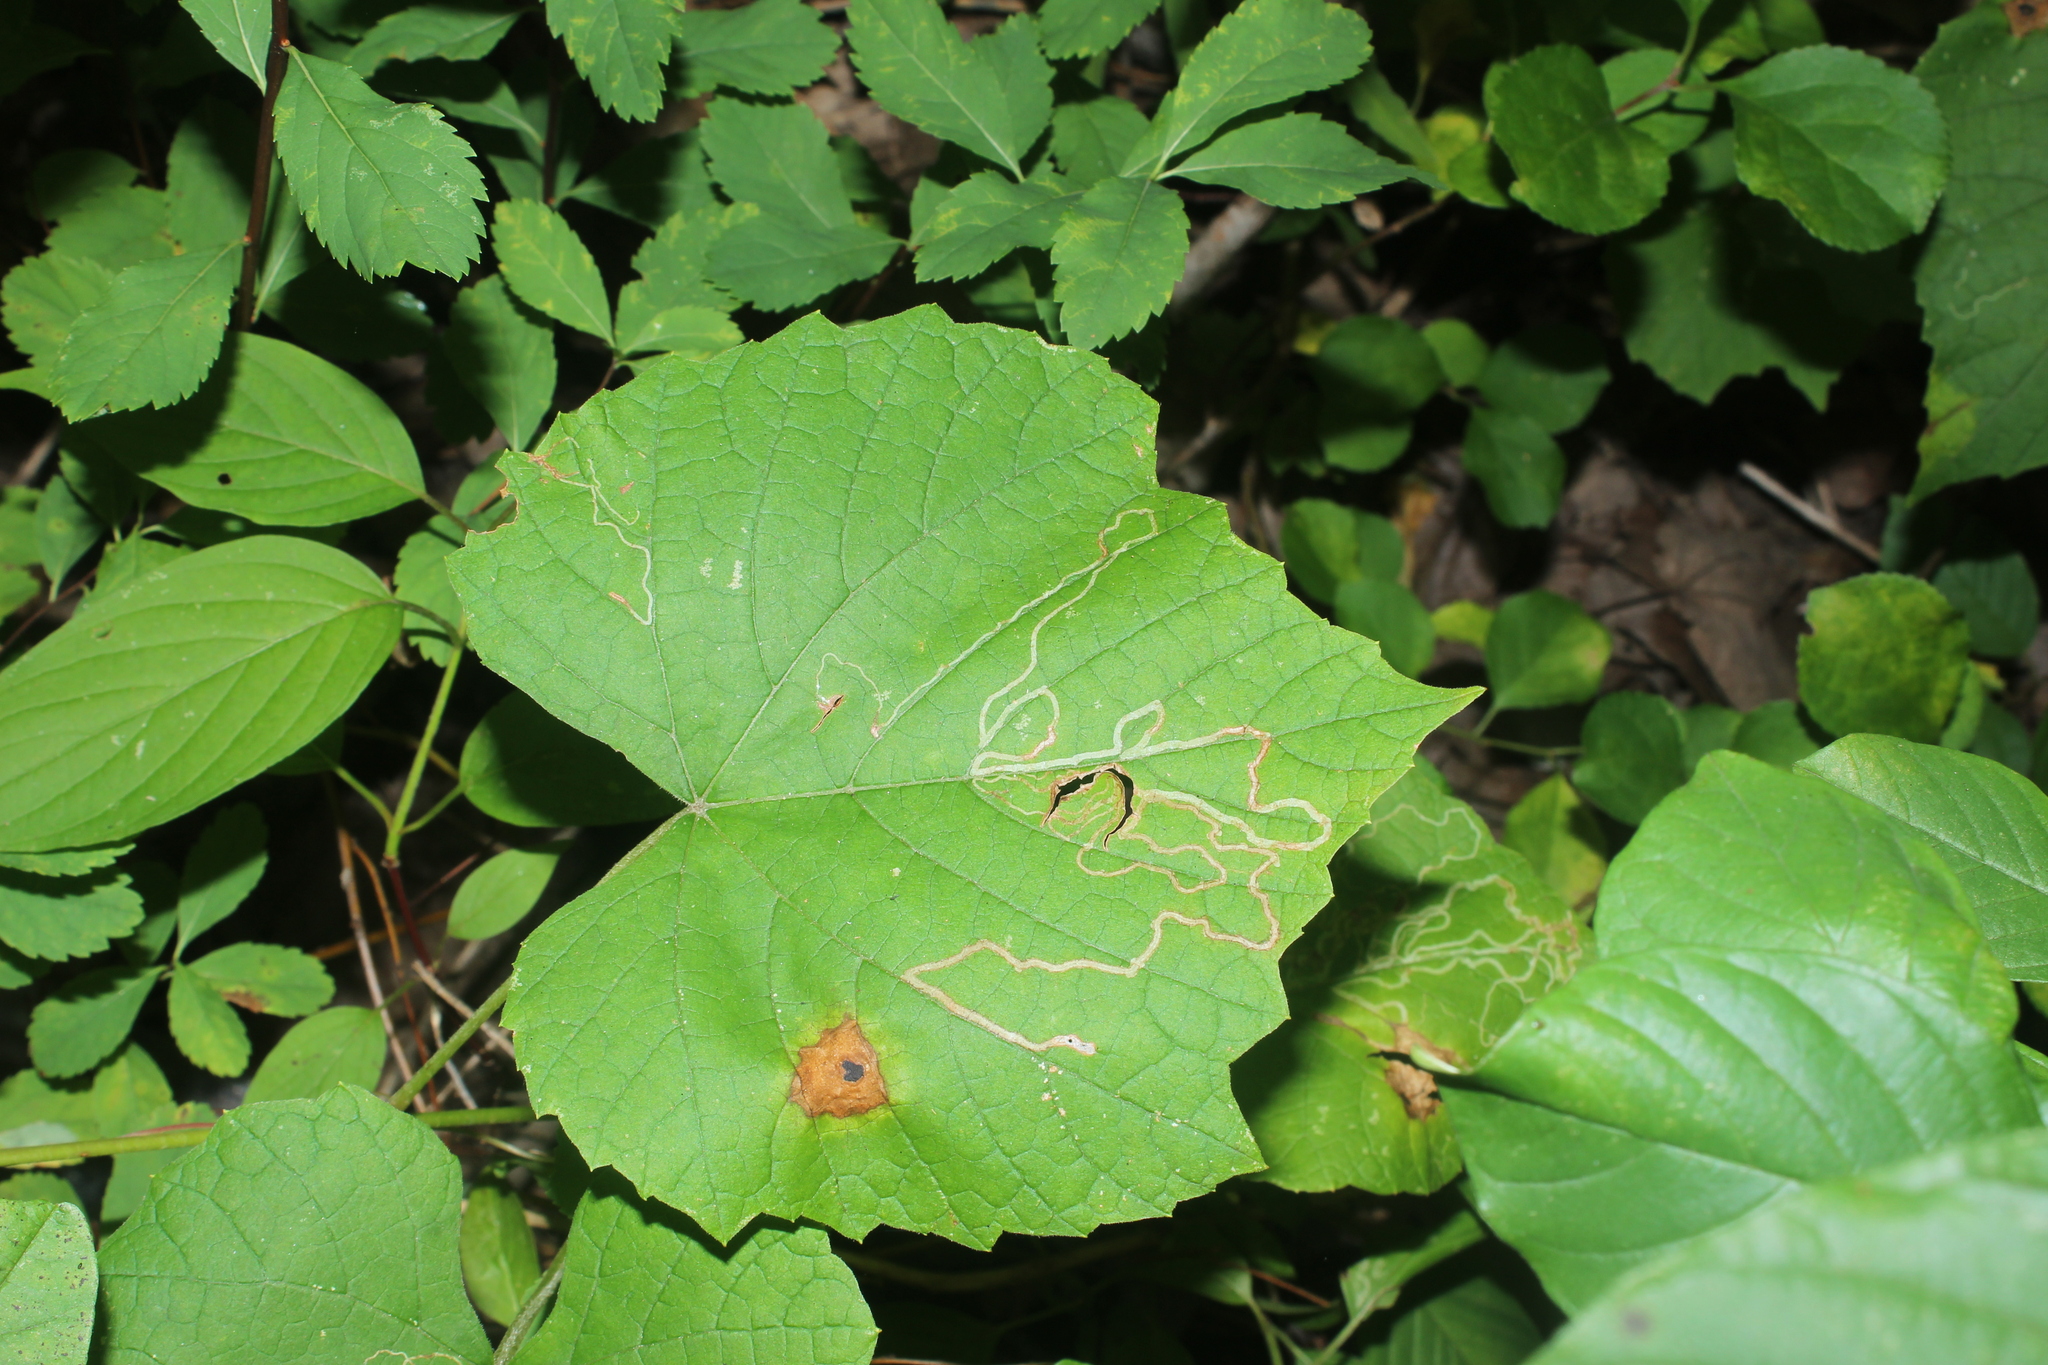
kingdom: Animalia
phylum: Arthropoda
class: Insecta
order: Lepidoptera
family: Gracillariidae
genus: Phyllocnistis
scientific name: Phyllocnistis vitifoliella
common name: Grape leaf-miner moth
